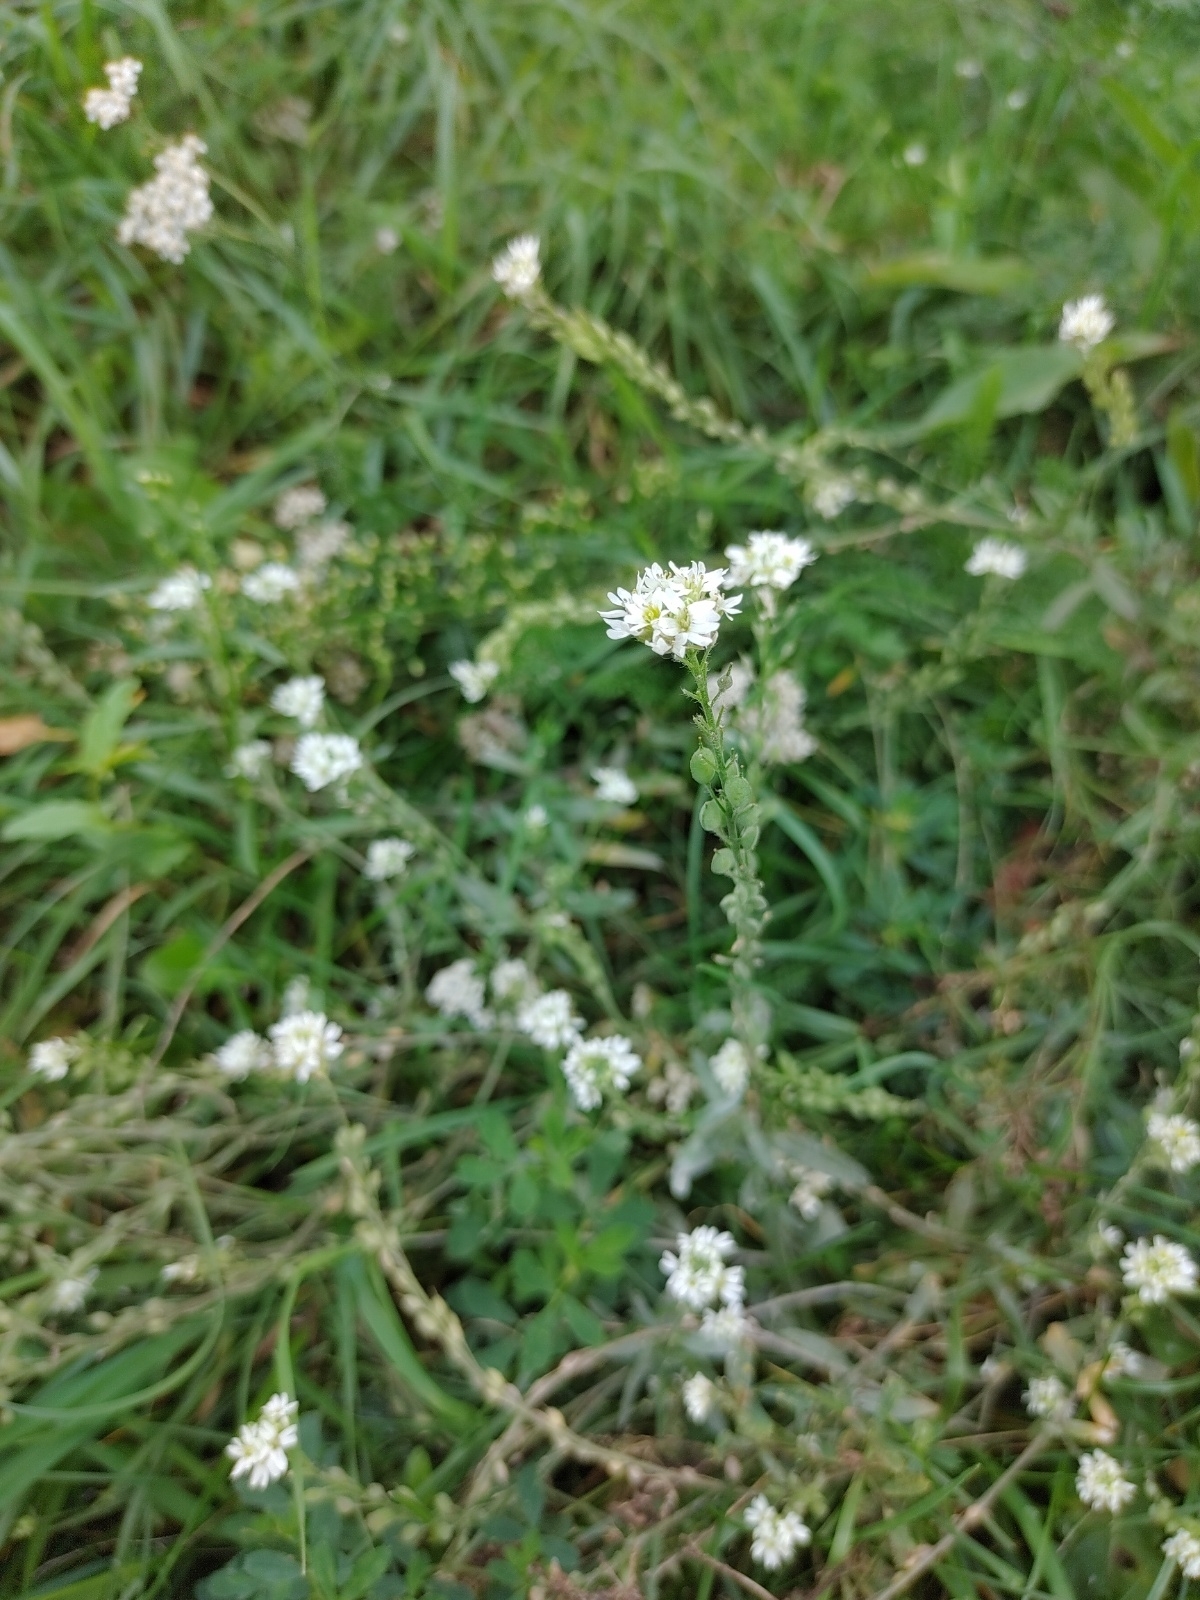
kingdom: Plantae
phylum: Tracheophyta
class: Magnoliopsida
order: Brassicales
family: Brassicaceae
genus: Berteroa
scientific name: Berteroa incana
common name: Hoary alison
